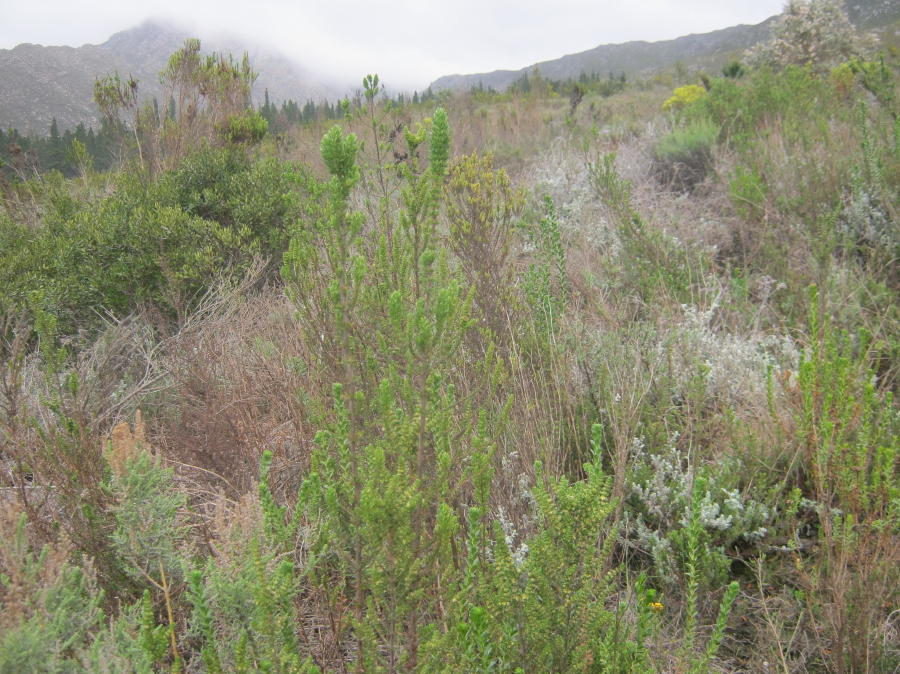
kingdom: Plantae
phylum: Tracheophyta
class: Magnoliopsida
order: Gentianales
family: Rubiaceae
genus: Anthospermum
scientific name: Anthospermum aethiopicum
